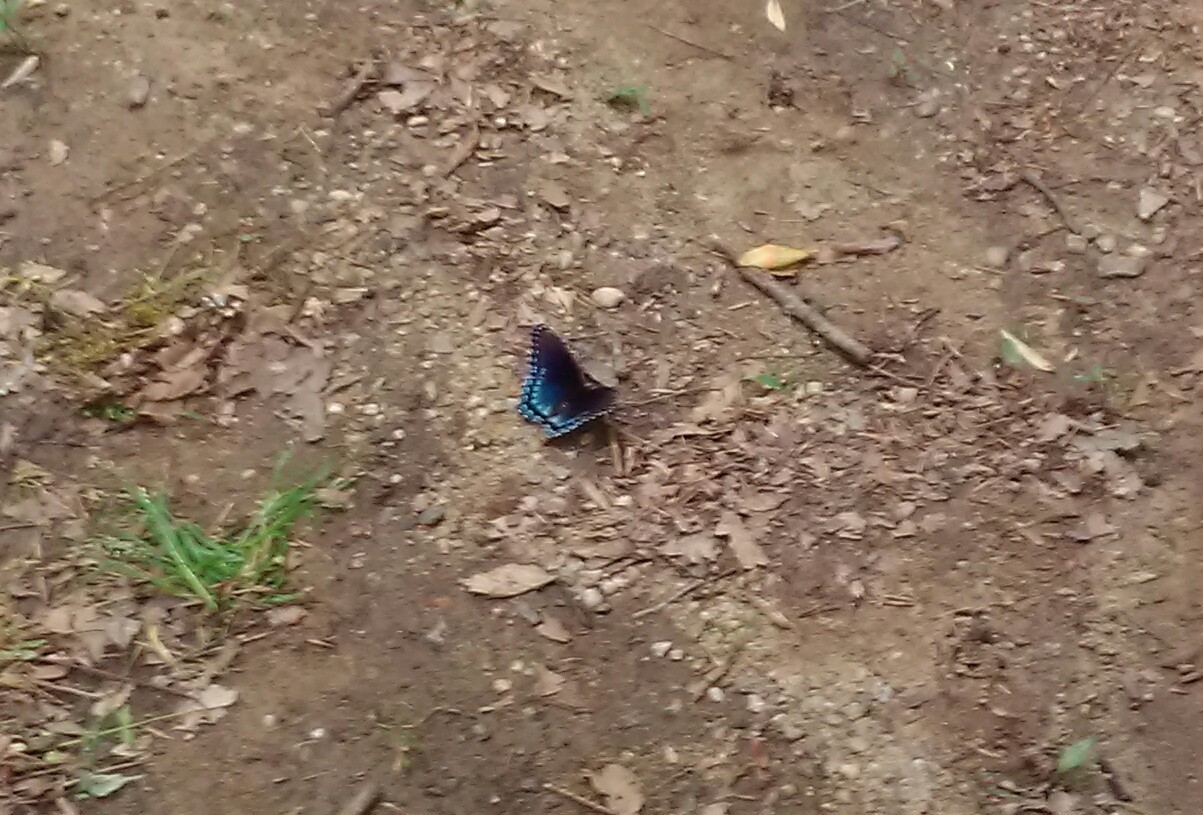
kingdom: Animalia
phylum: Arthropoda
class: Insecta
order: Lepidoptera
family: Nymphalidae
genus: Limenitis
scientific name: Limenitis astyanax
